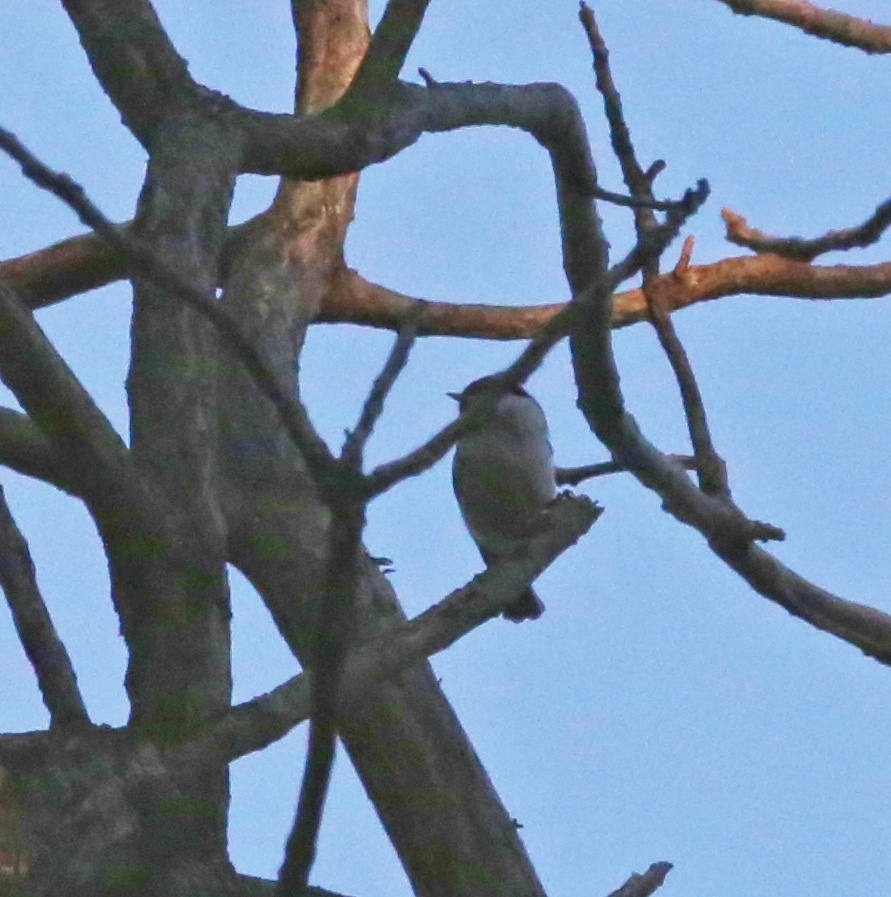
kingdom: Animalia
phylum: Chordata
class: Aves
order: Passeriformes
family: Paridae
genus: Poecile
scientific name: Poecile montanus
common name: Willow tit
